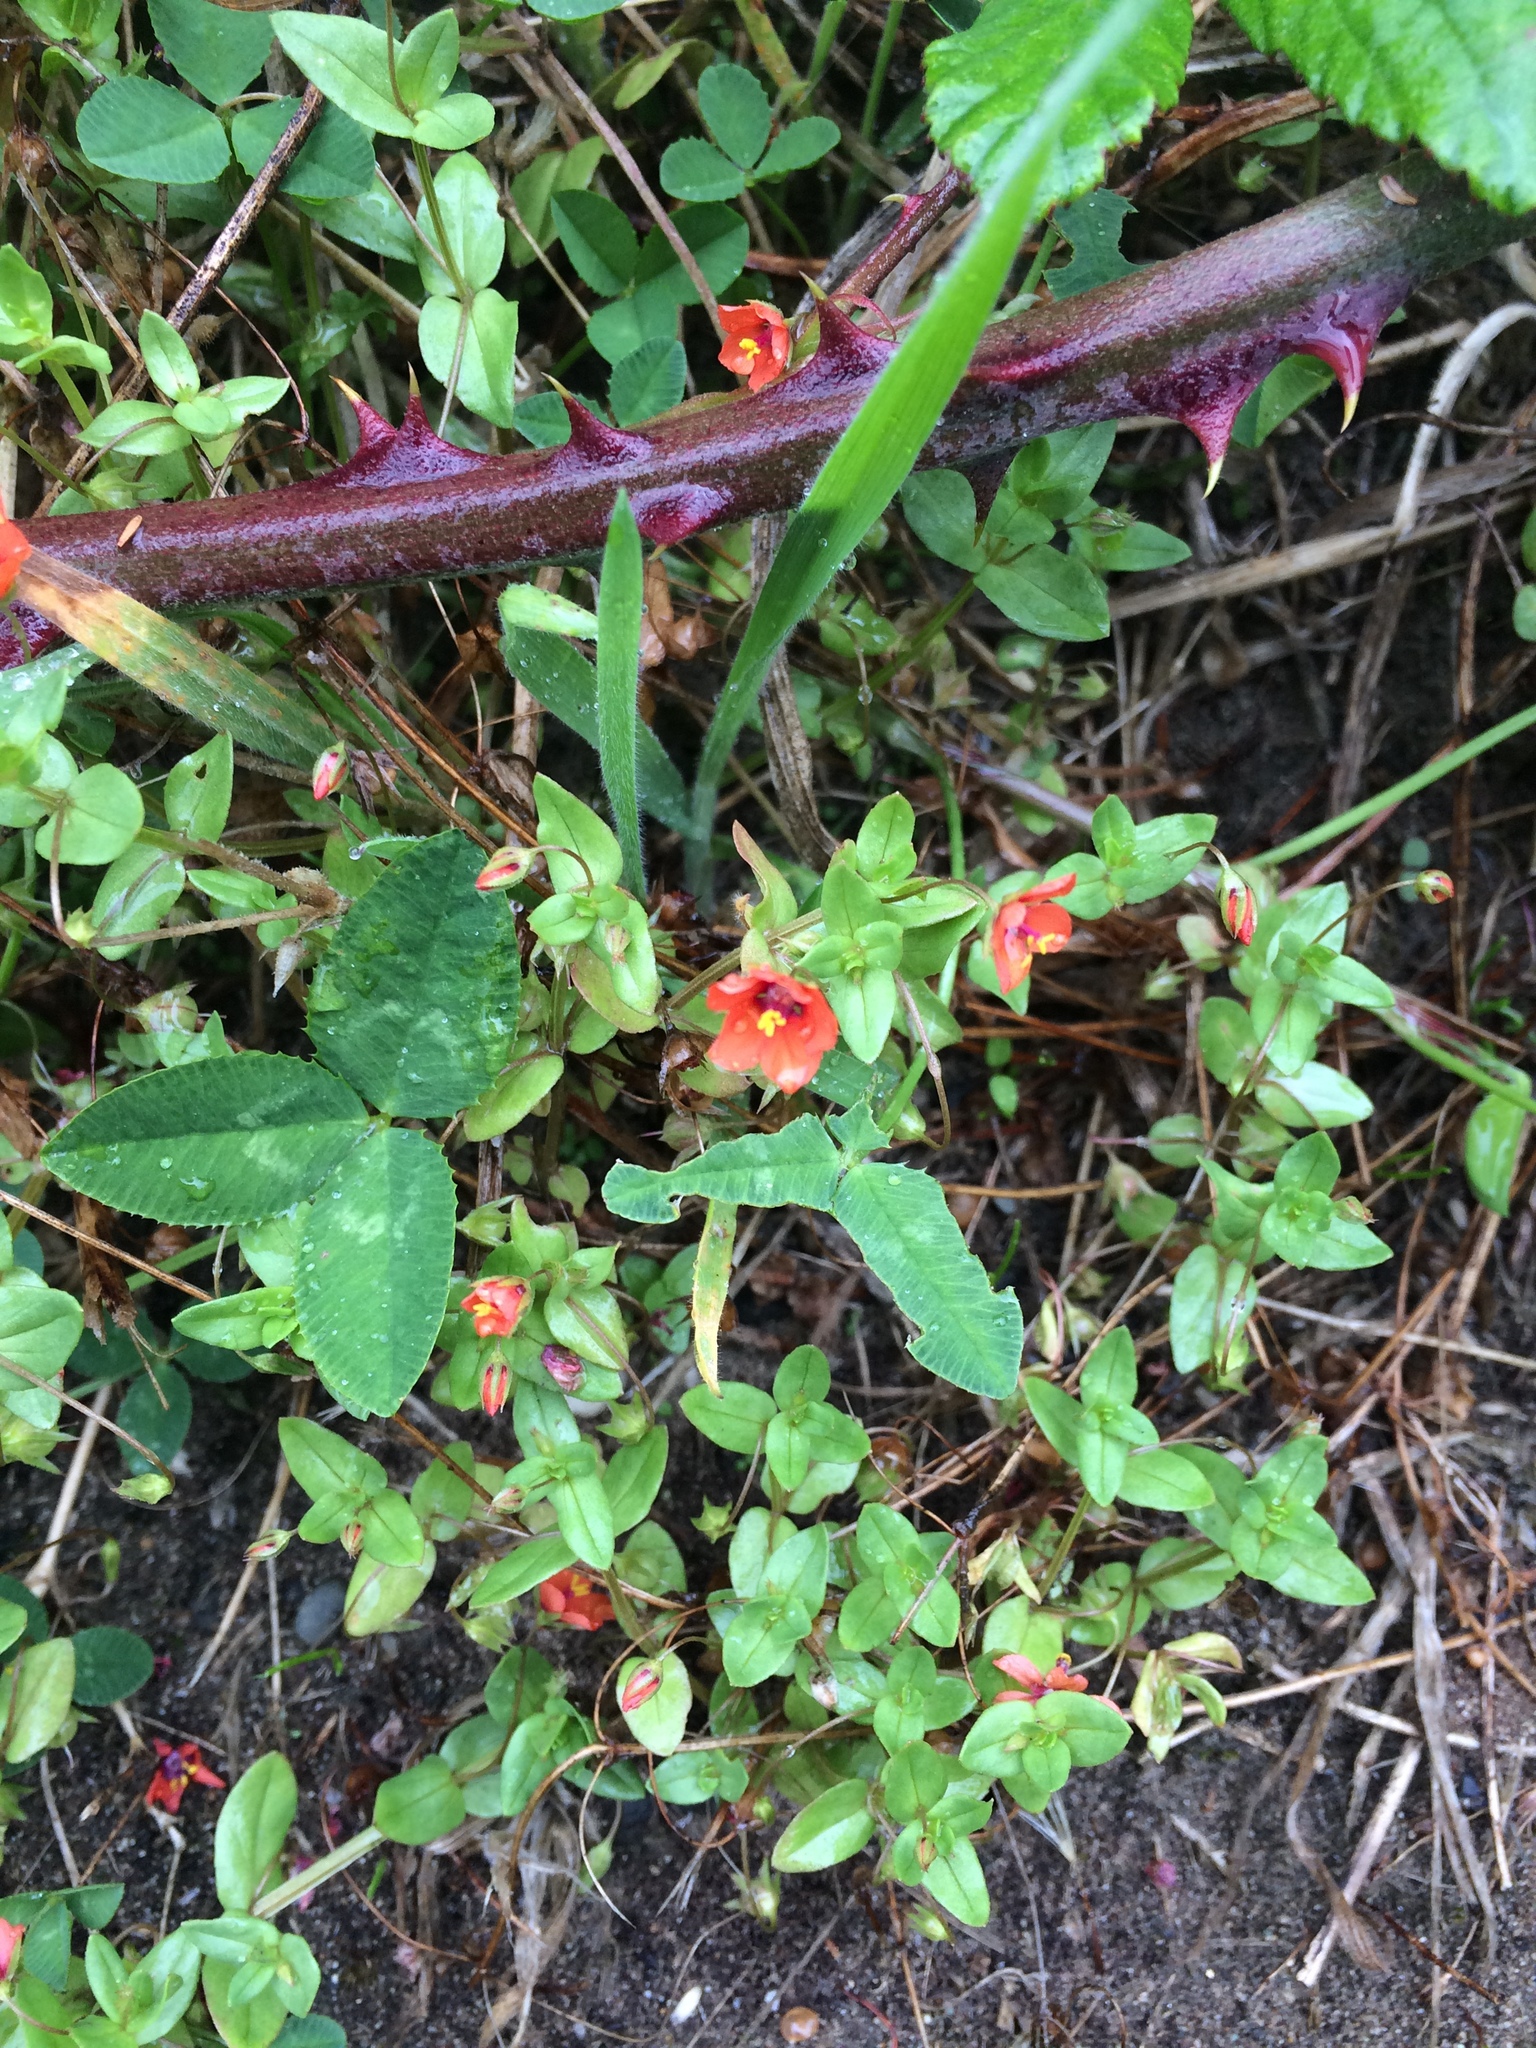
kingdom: Plantae
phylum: Tracheophyta
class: Magnoliopsida
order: Ericales
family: Primulaceae
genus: Lysimachia
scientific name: Lysimachia arvensis
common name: Scarlet pimpernel
